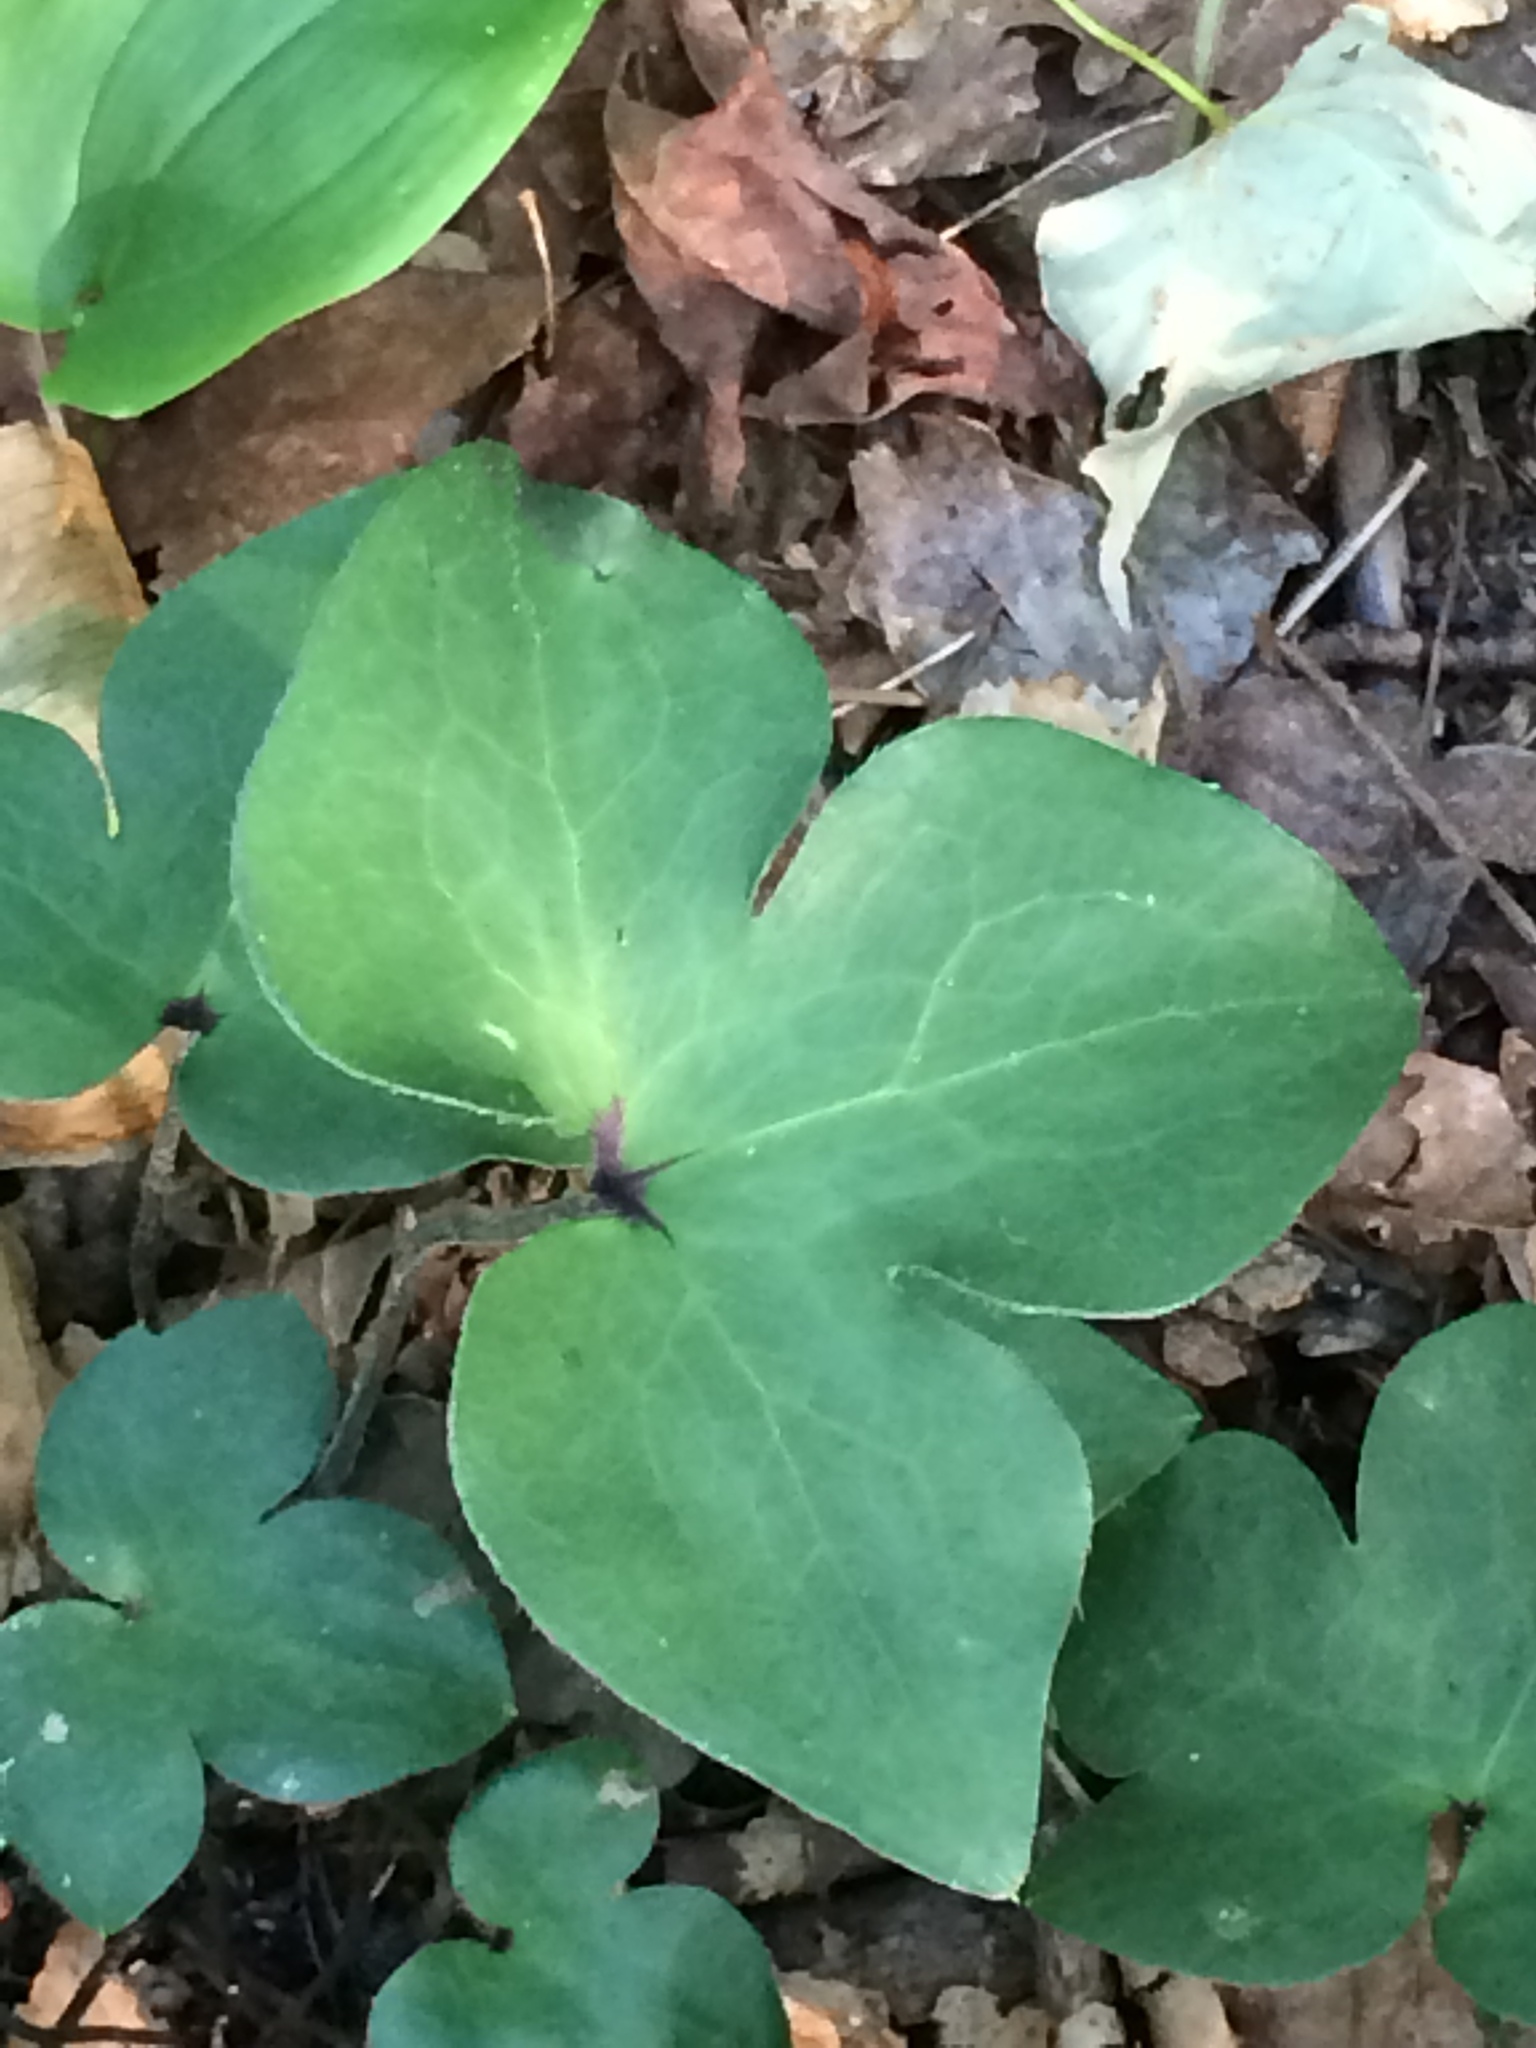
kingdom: Plantae
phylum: Tracheophyta
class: Magnoliopsida
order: Ranunculales
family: Ranunculaceae
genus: Hepatica
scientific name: Hepatica acutiloba
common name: Sharp-lobed hepatica
